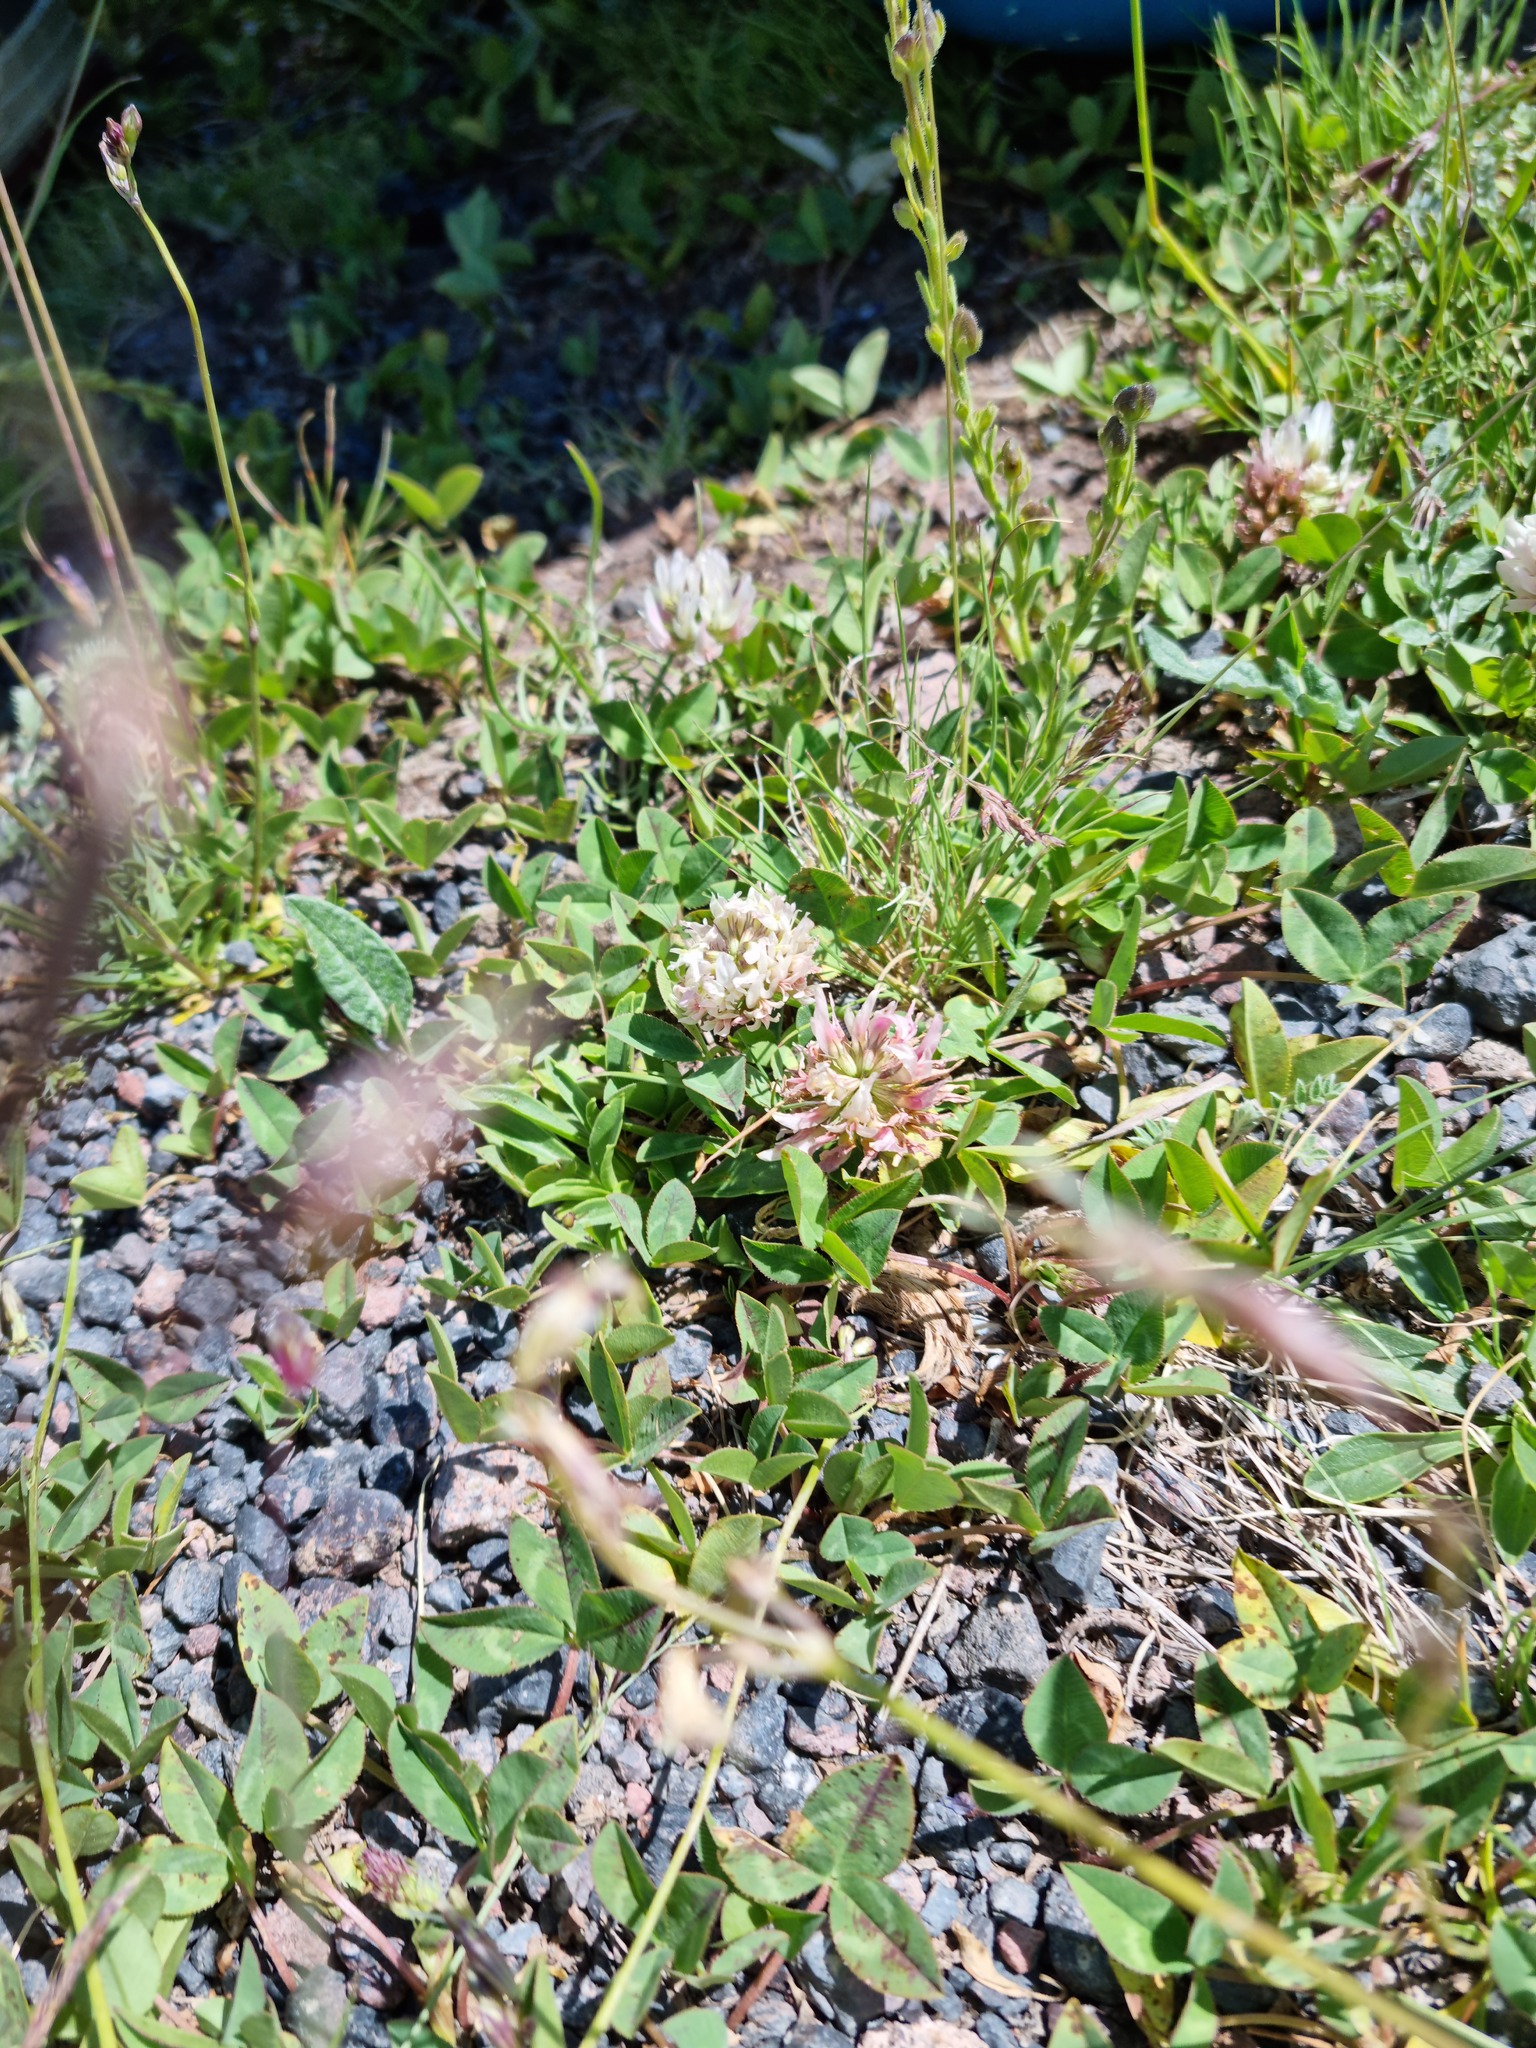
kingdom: Plantae
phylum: Tracheophyta
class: Magnoliopsida
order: Fabales
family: Fabaceae
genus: Trifolium
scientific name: Trifolium ambiguum
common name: Kura clover
